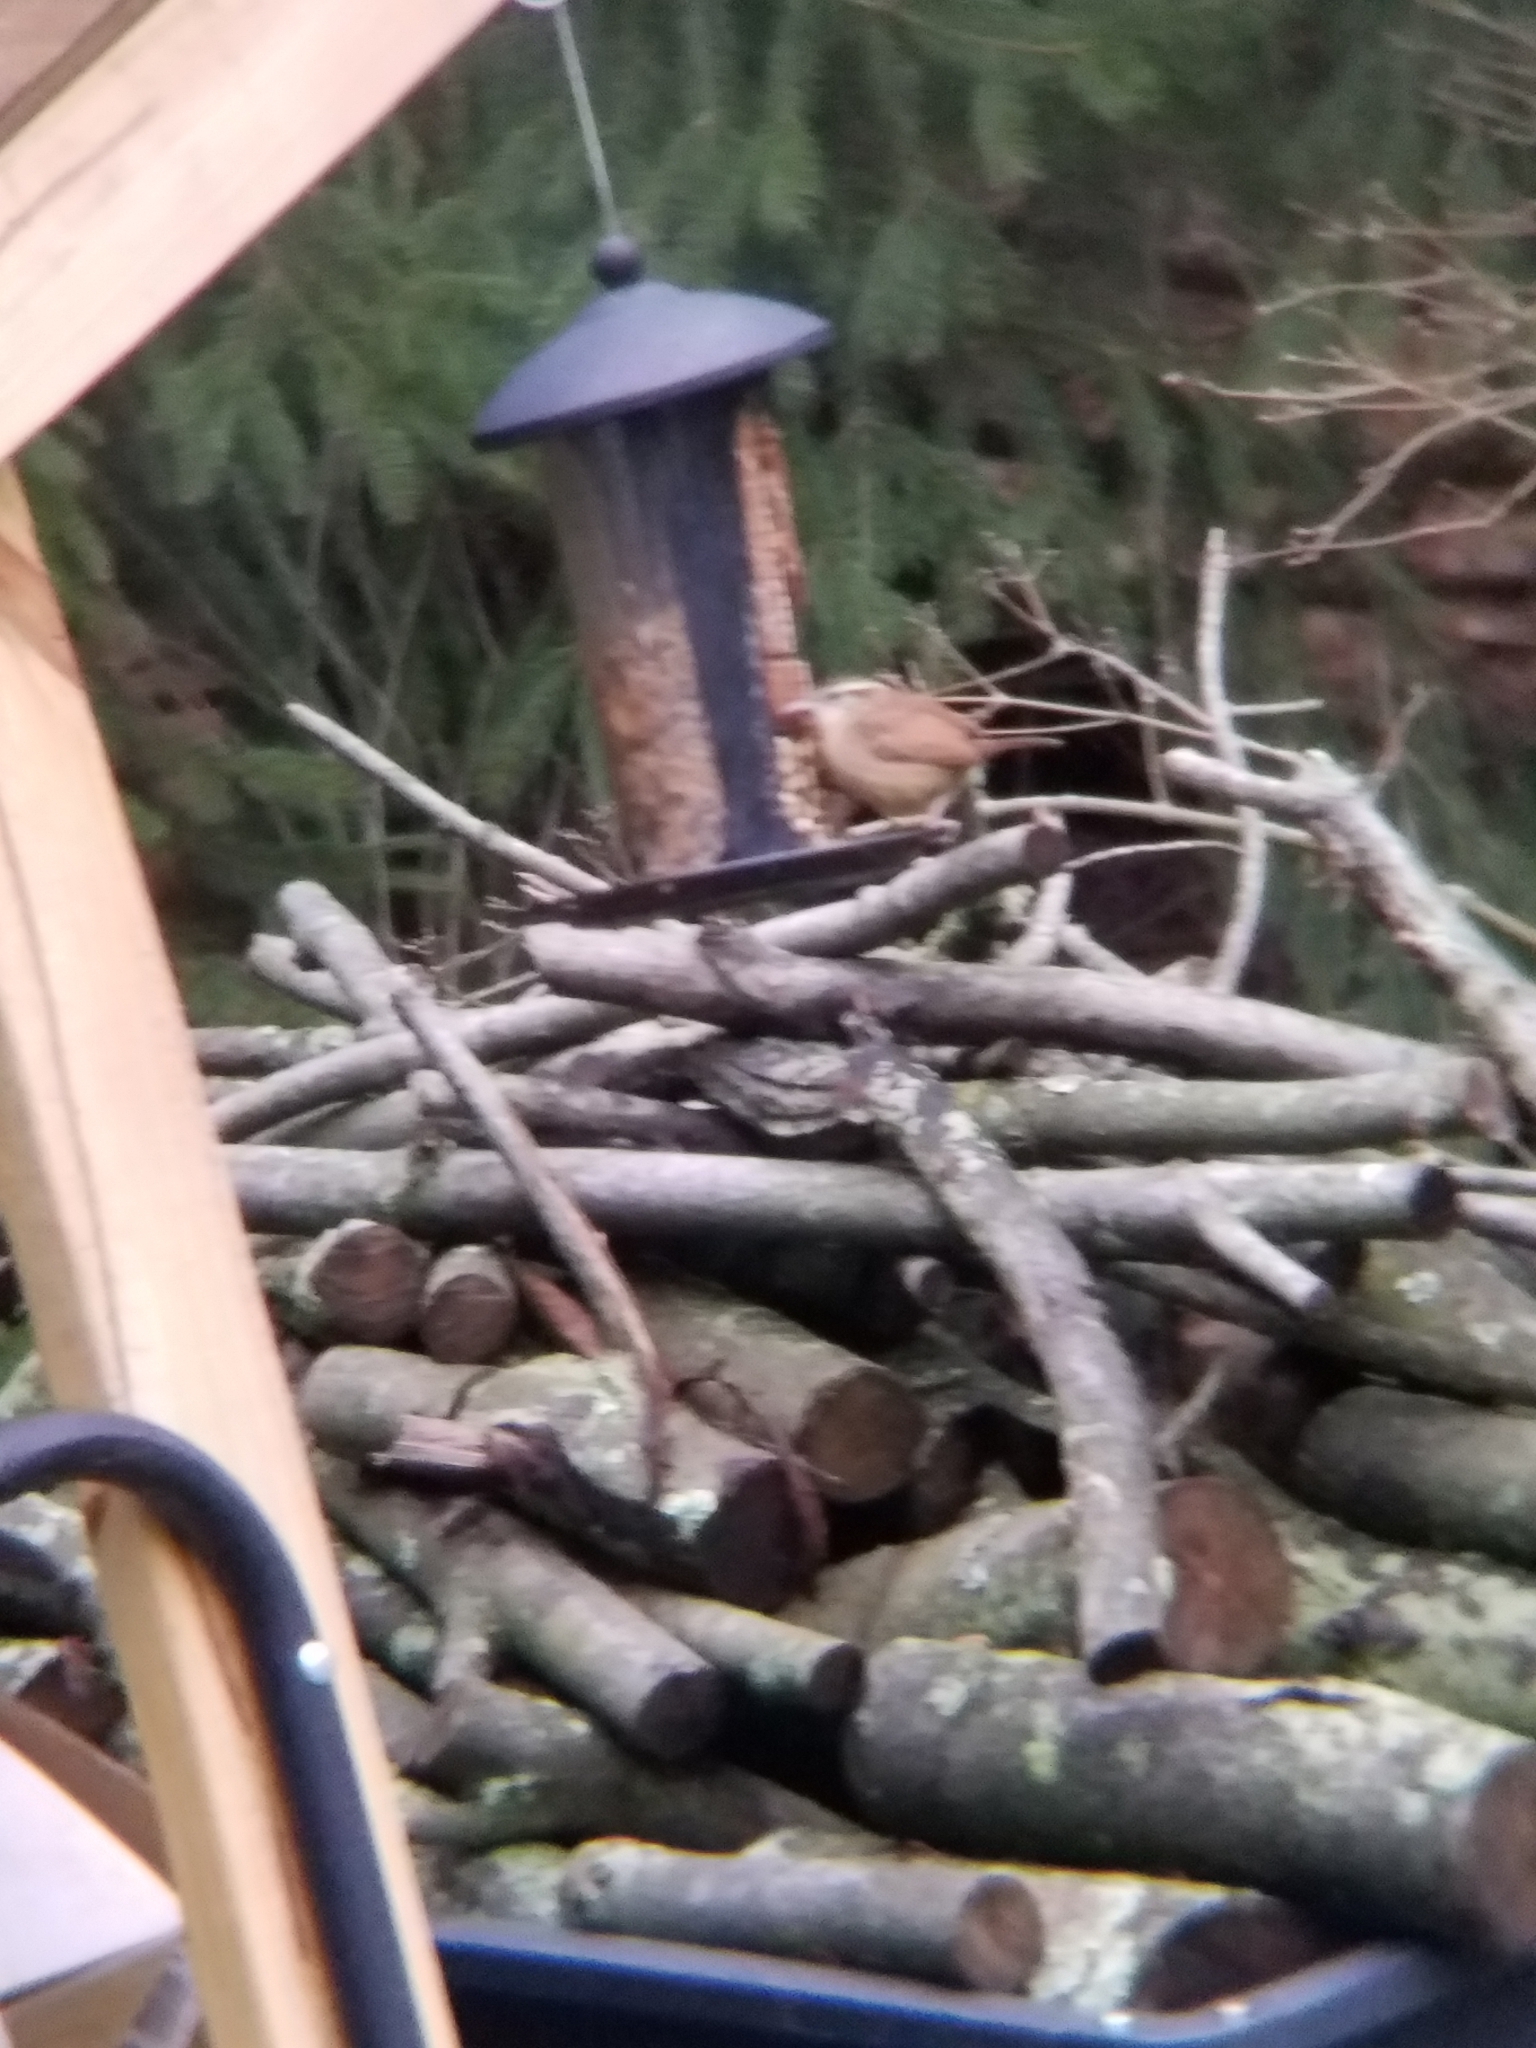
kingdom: Animalia
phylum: Chordata
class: Aves
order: Passeriformes
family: Troglodytidae
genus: Thryothorus
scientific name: Thryothorus ludovicianus
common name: Carolina wren
